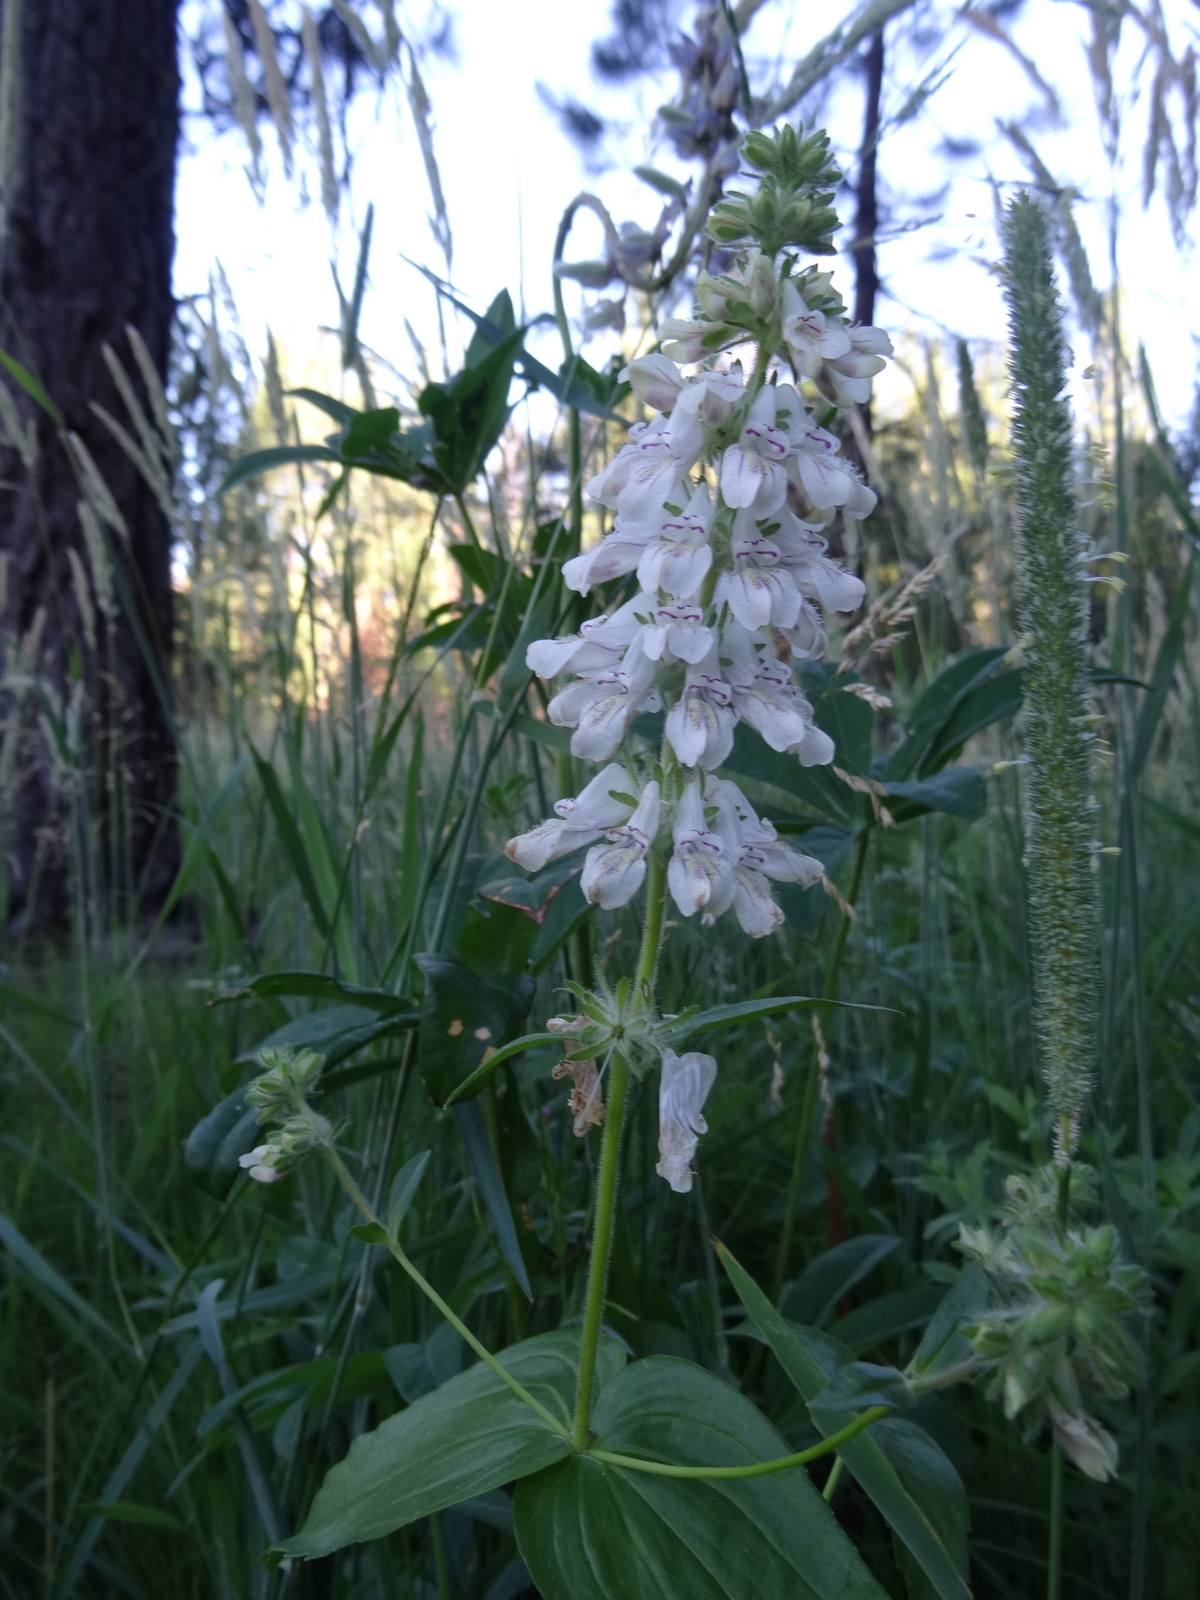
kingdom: Plantae
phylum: Tracheophyta
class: Magnoliopsida
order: Lamiales
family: Plantaginaceae
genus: Collinsia
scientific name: Collinsia tinctoria
